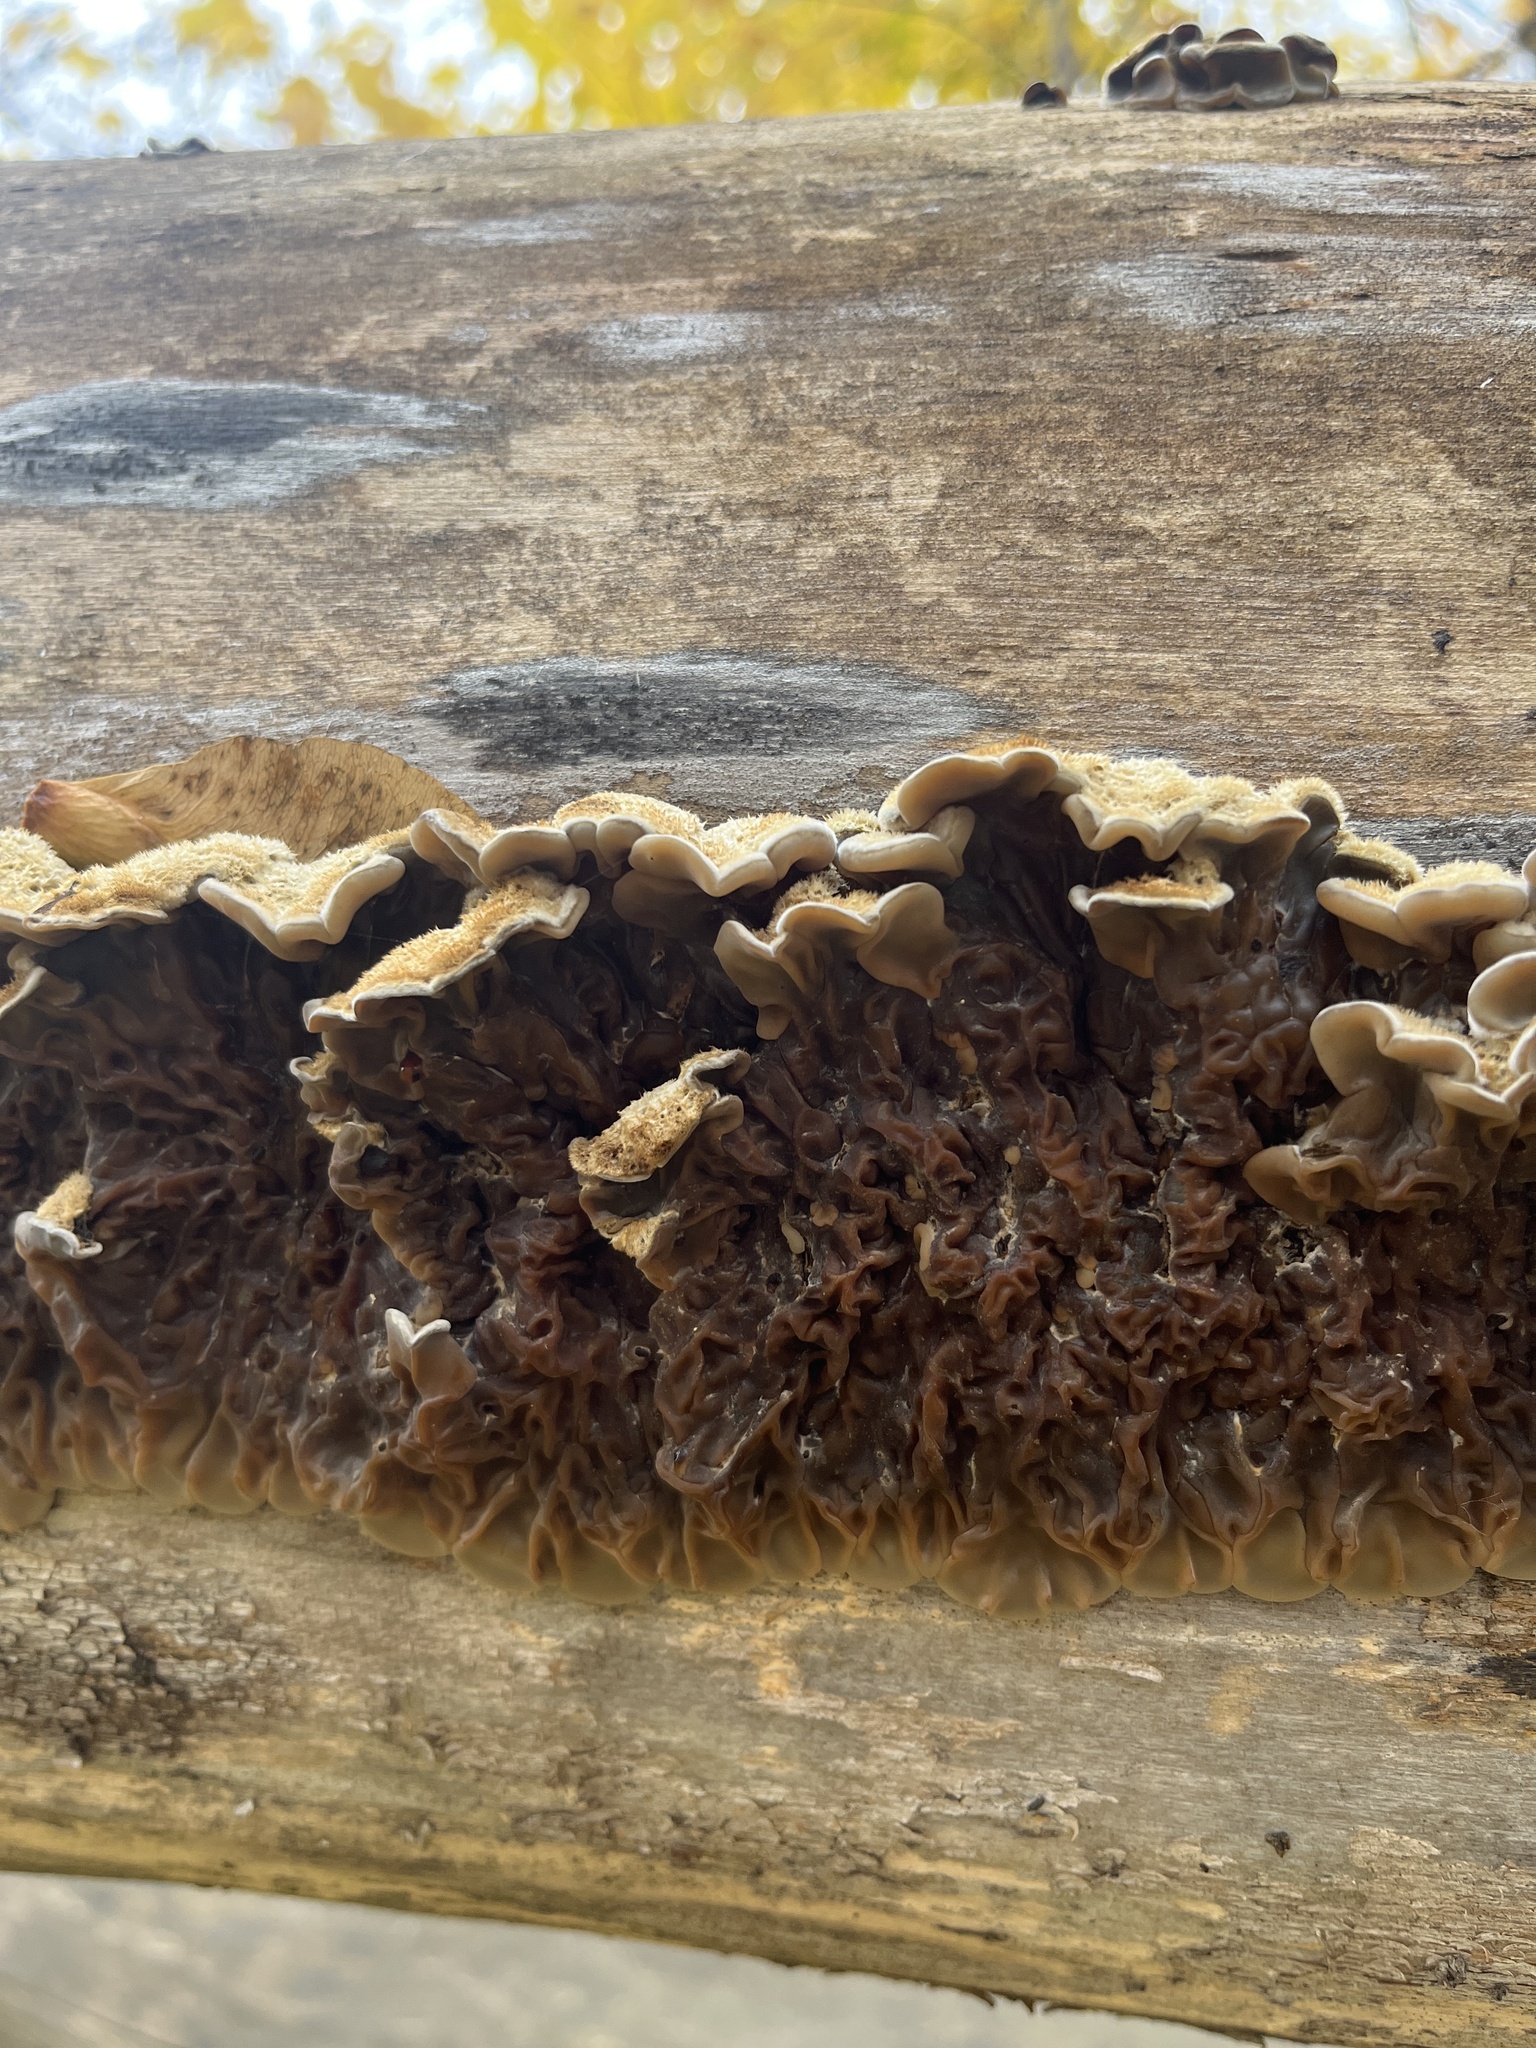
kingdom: Fungi
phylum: Basidiomycota
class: Agaricomycetes
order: Auriculariales
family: Auriculariaceae
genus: Auricularia
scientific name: Auricularia mesenterica
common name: Tripe fungus
